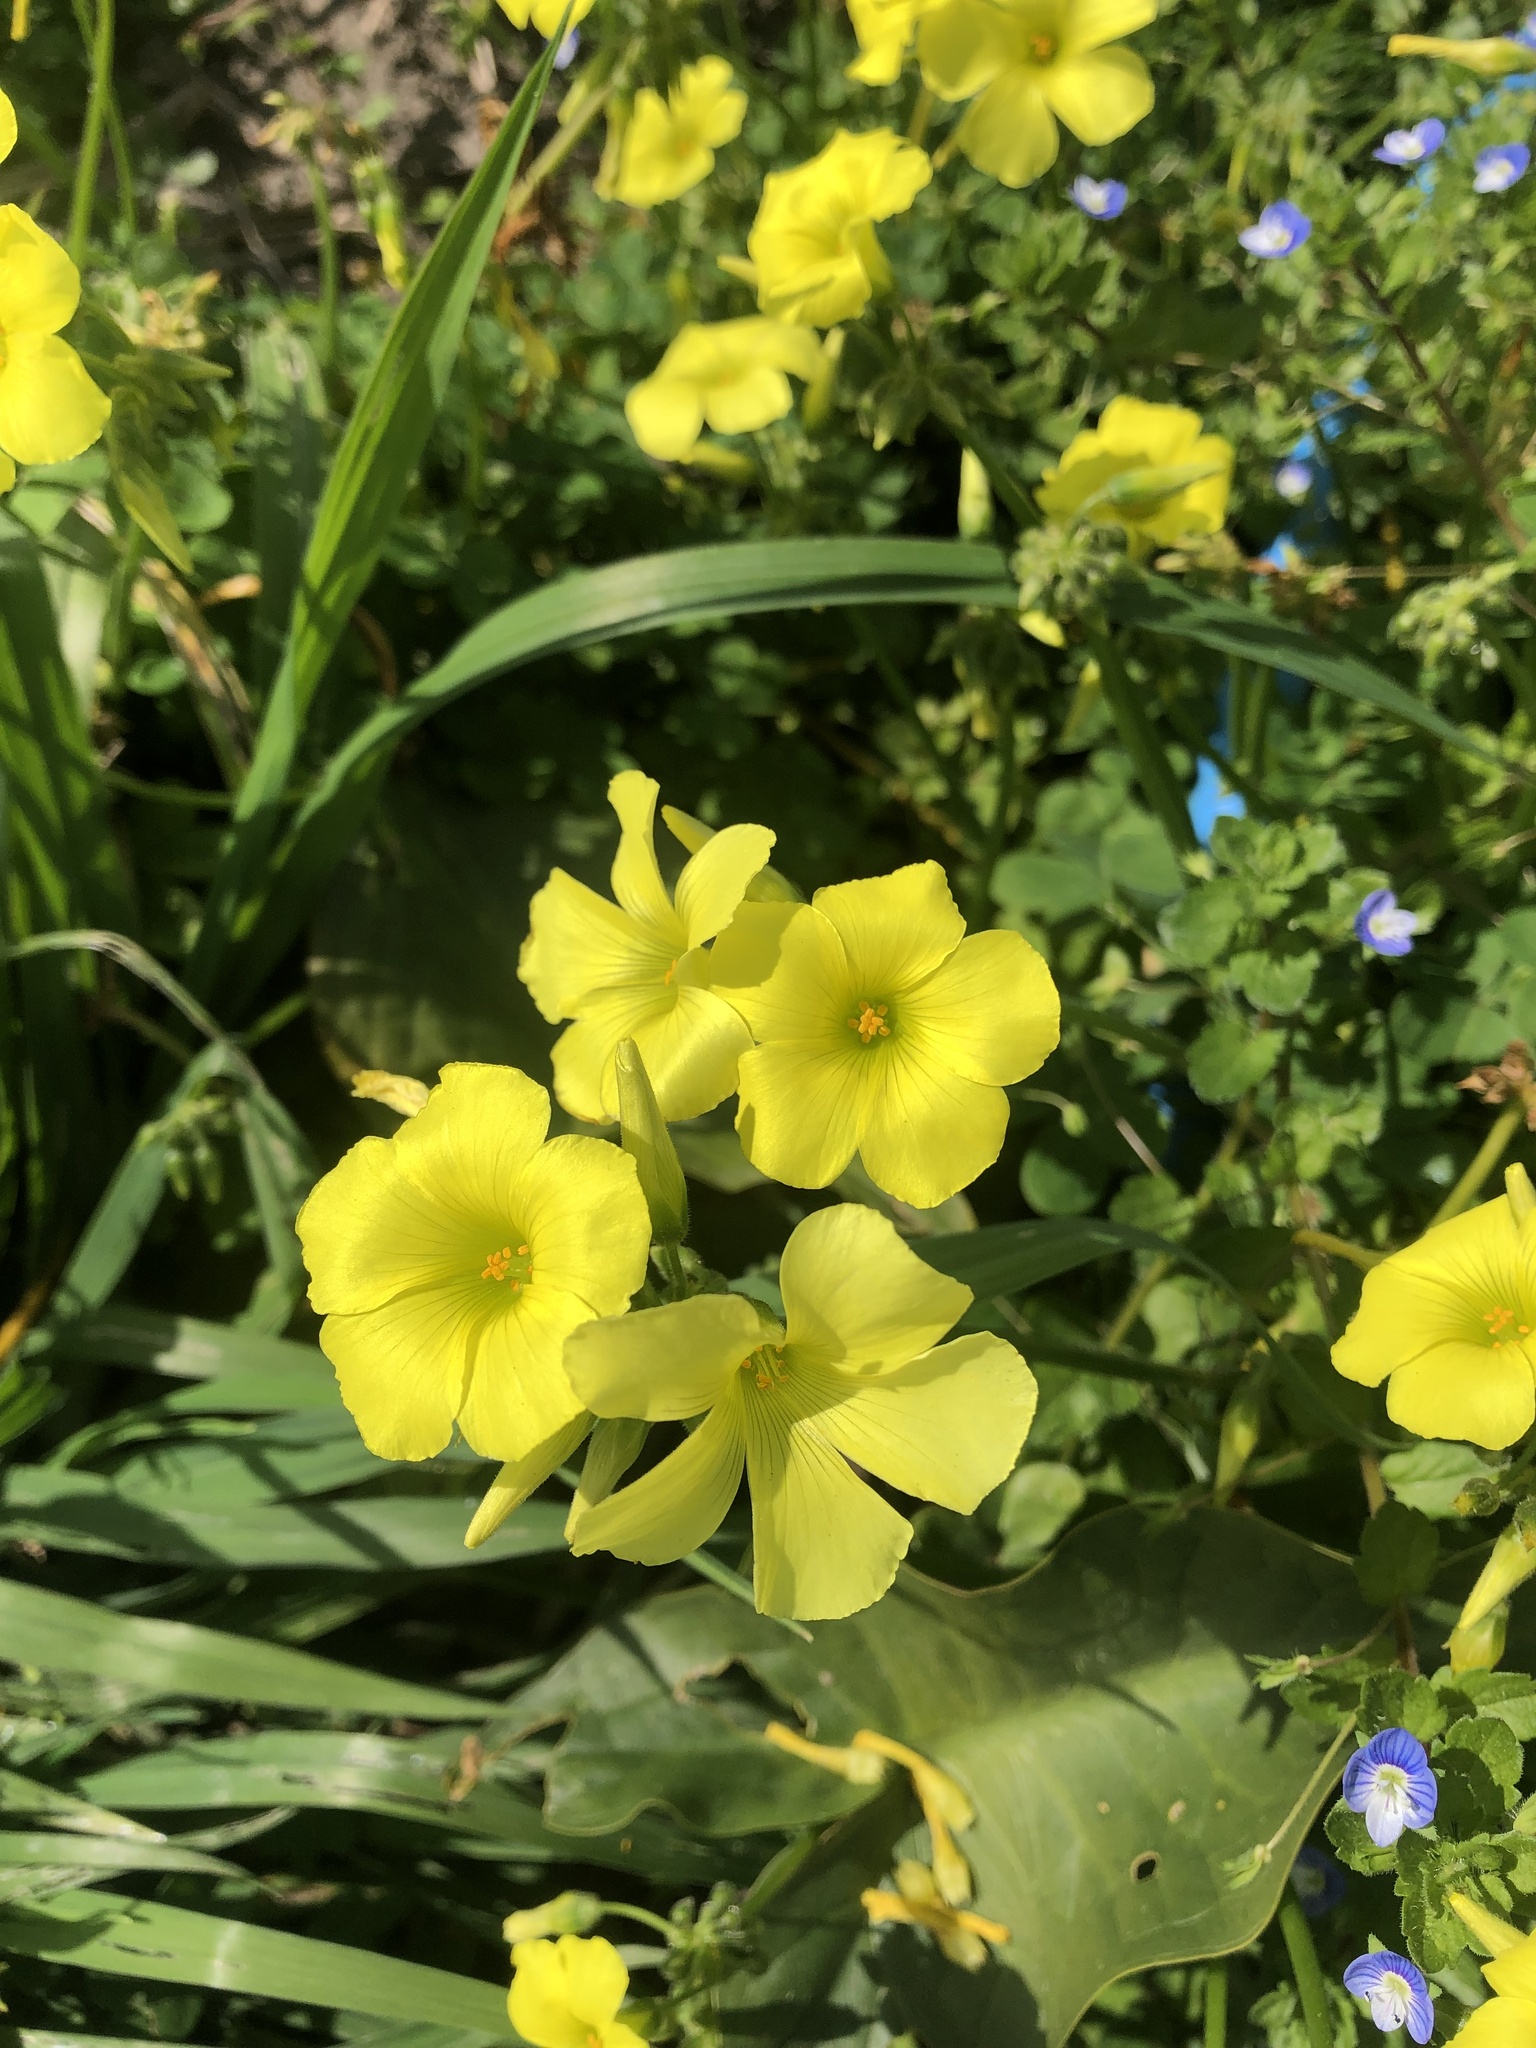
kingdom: Plantae
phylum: Tracheophyta
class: Magnoliopsida
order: Oxalidales
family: Oxalidaceae
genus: Oxalis
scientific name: Oxalis pes-caprae
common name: Bermuda-buttercup
